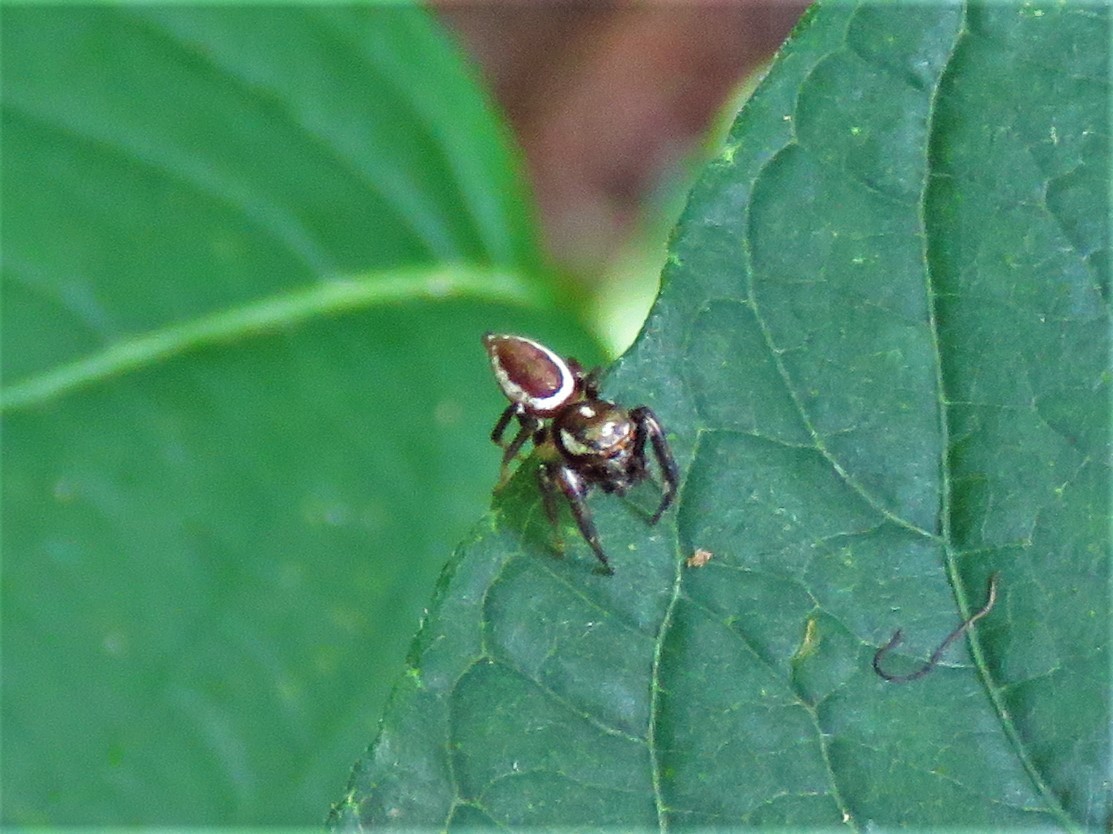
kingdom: Animalia
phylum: Arthropoda
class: Arachnida
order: Araneae
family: Salticidae
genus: Eris
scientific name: Eris militaris
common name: Bronze jumper
